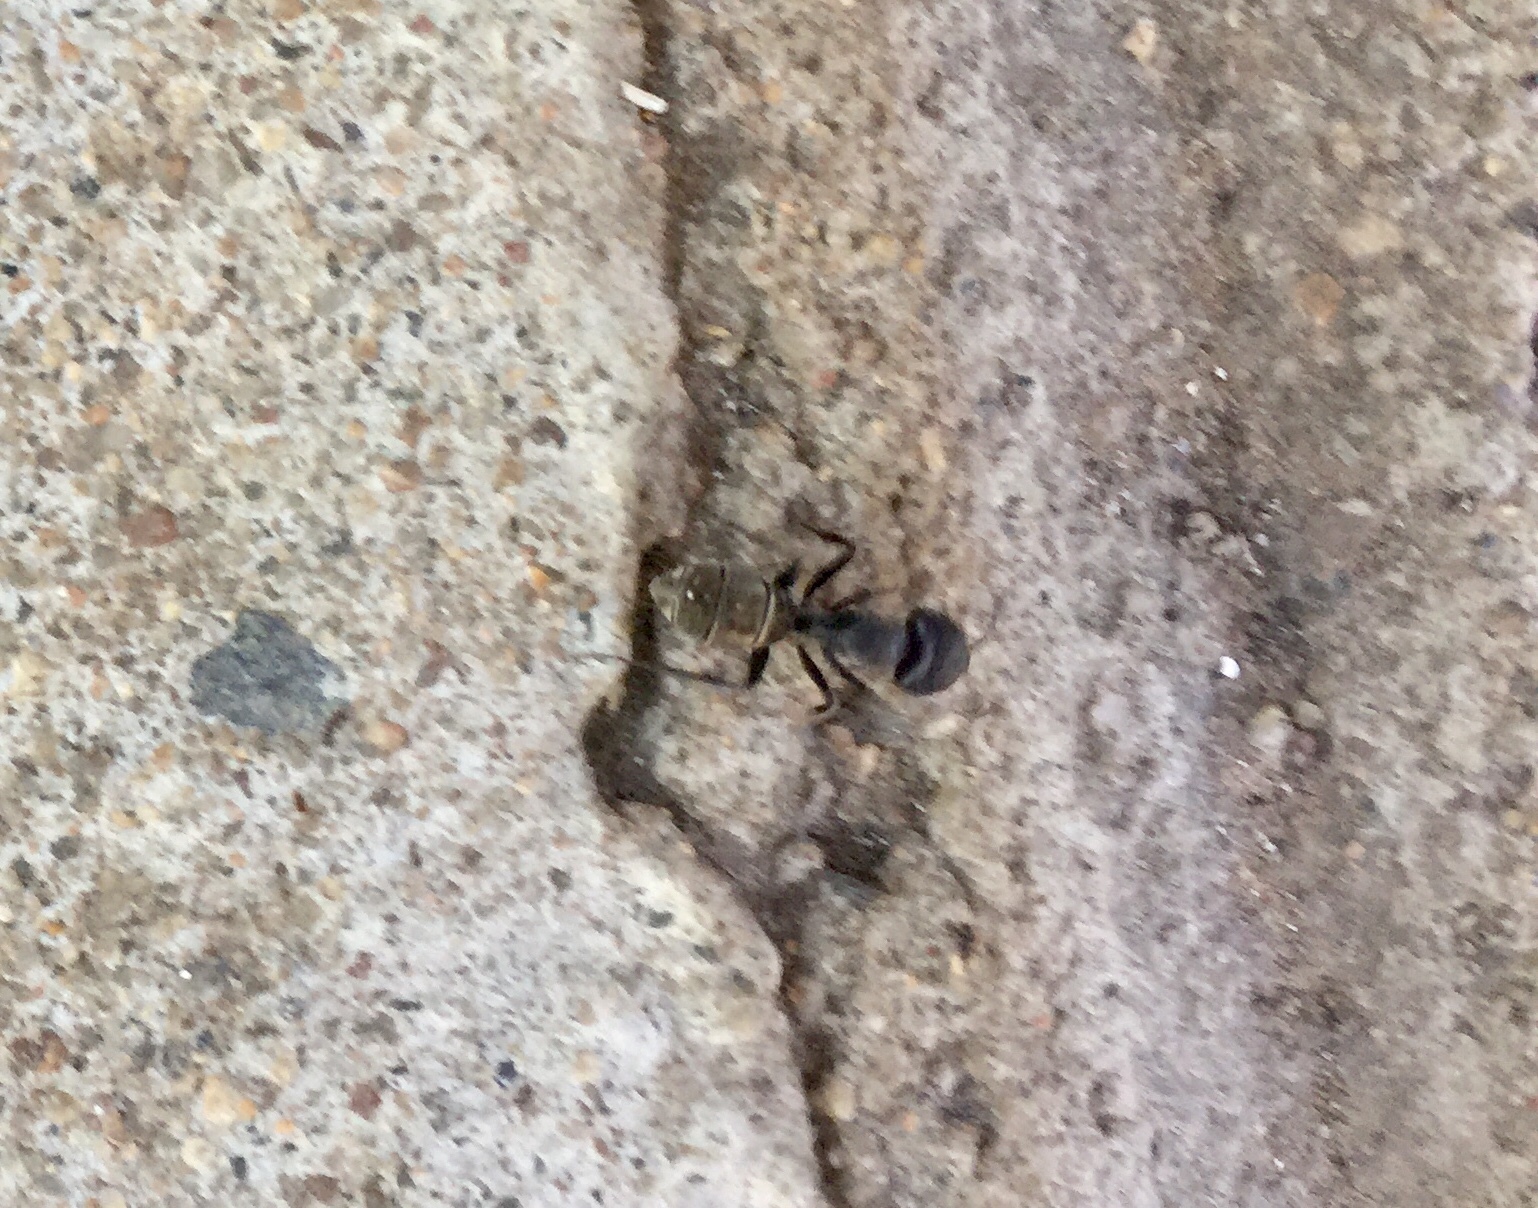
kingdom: Animalia
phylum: Arthropoda
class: Insecta
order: Hymenoptera
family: Formicidae
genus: Camponotus
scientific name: Camponotus cinctellus
